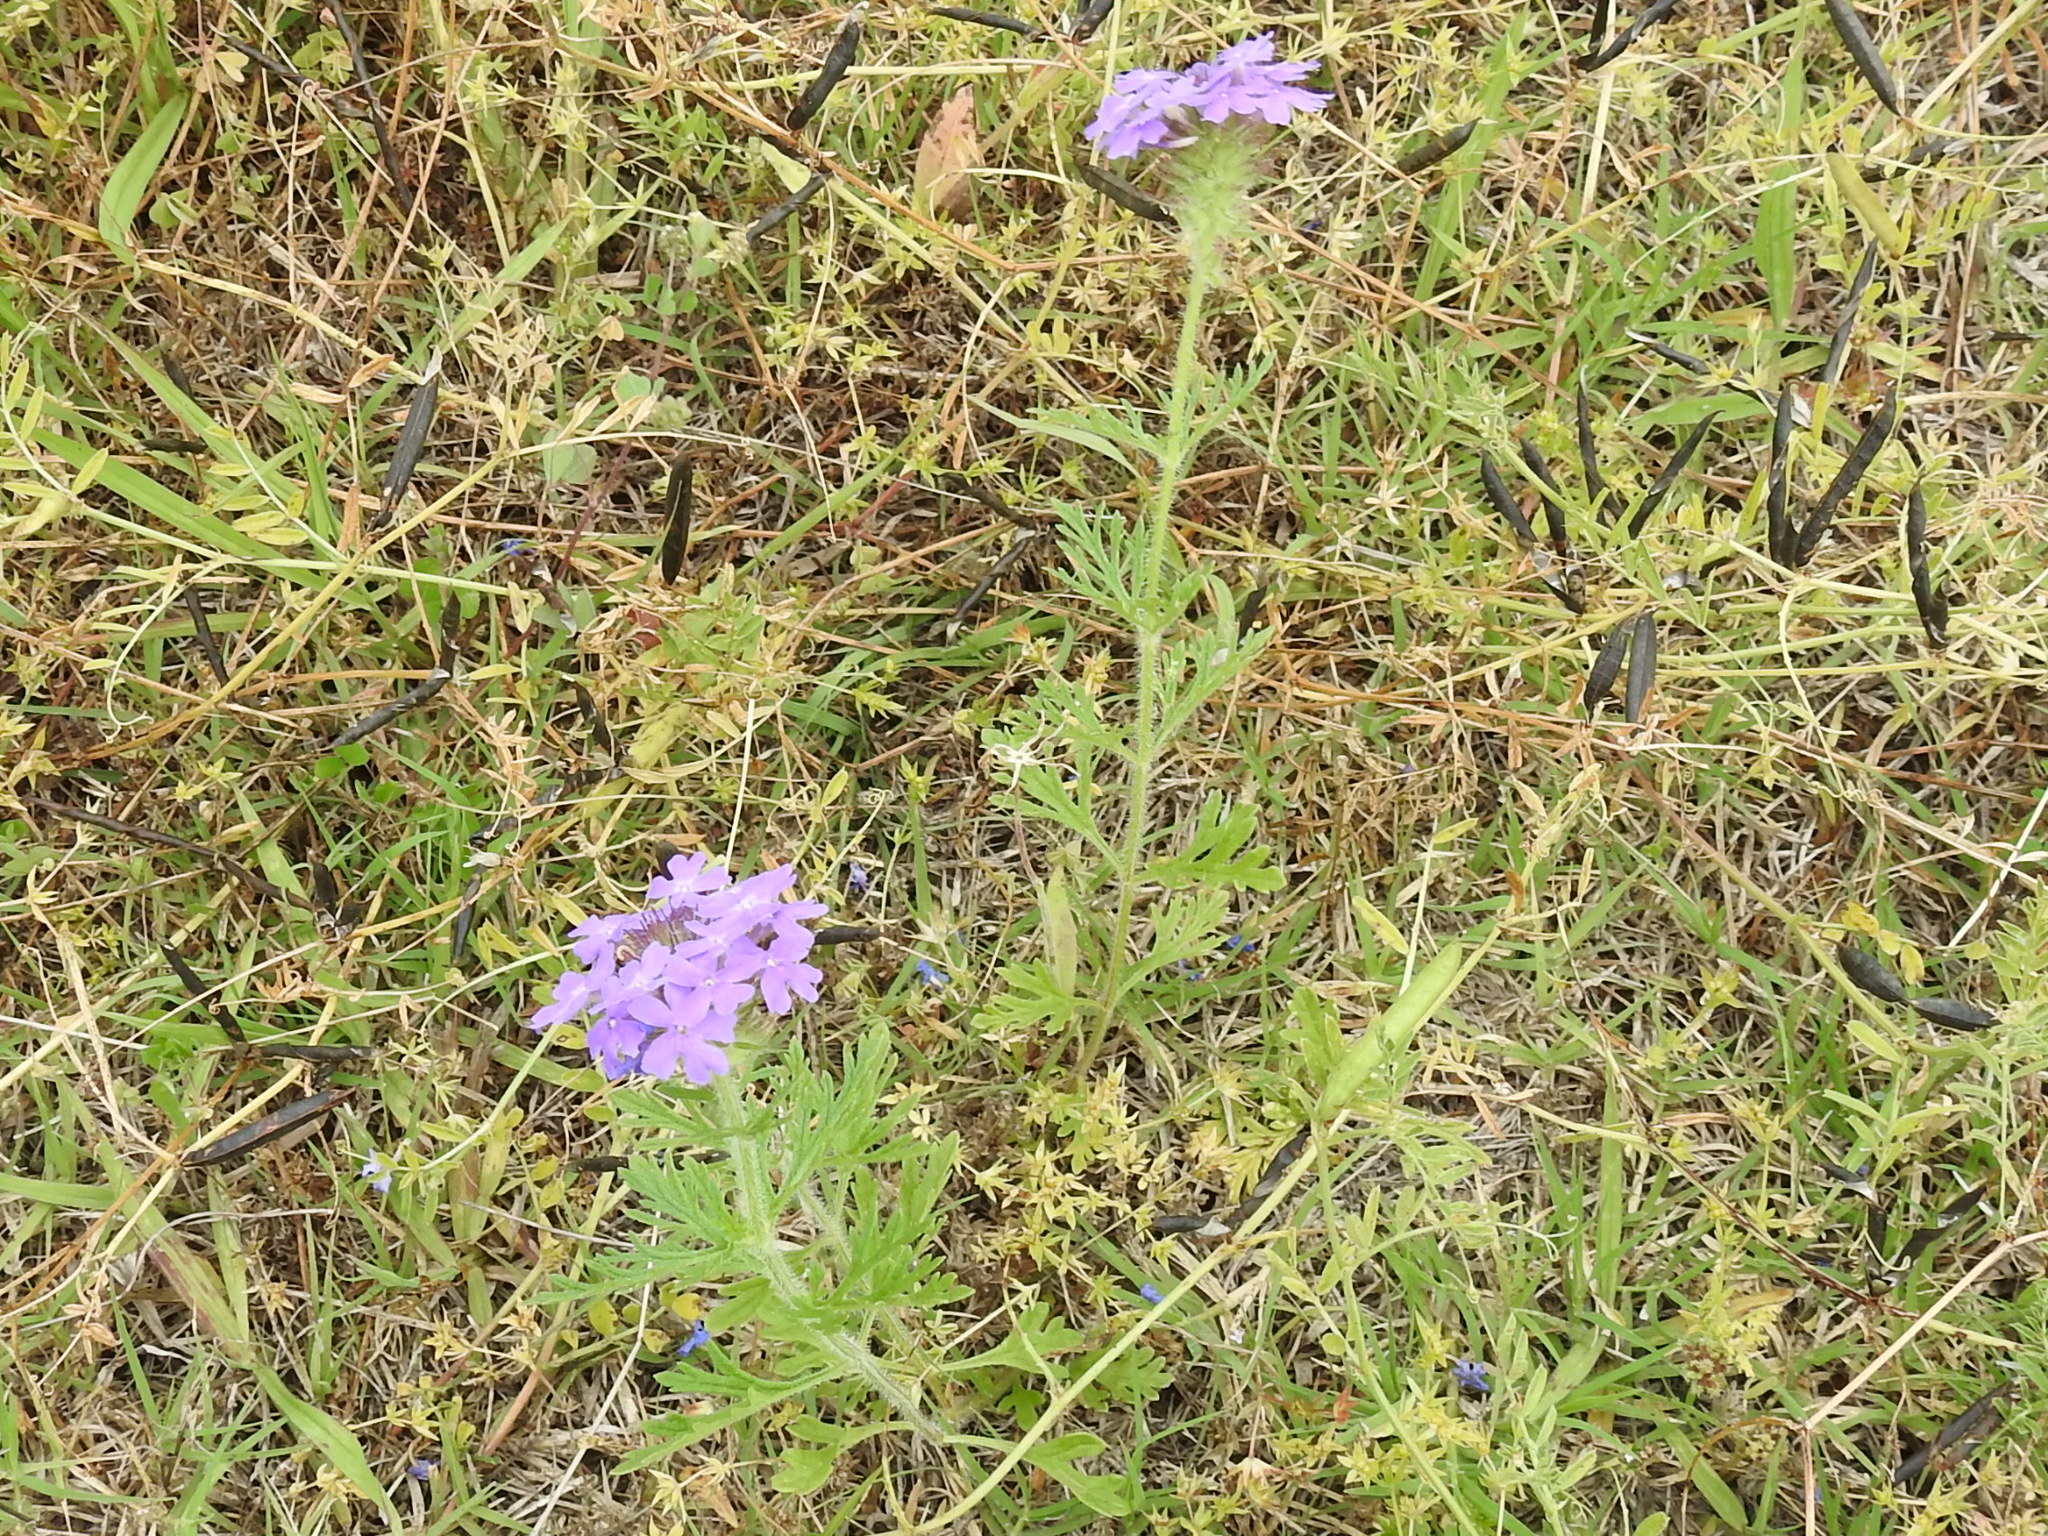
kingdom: Plantae
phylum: Tracheophyta
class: Magnoliopsida
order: Lamiales
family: Verbenaceae
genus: Verbena
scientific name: Verbena bipinnatifida
